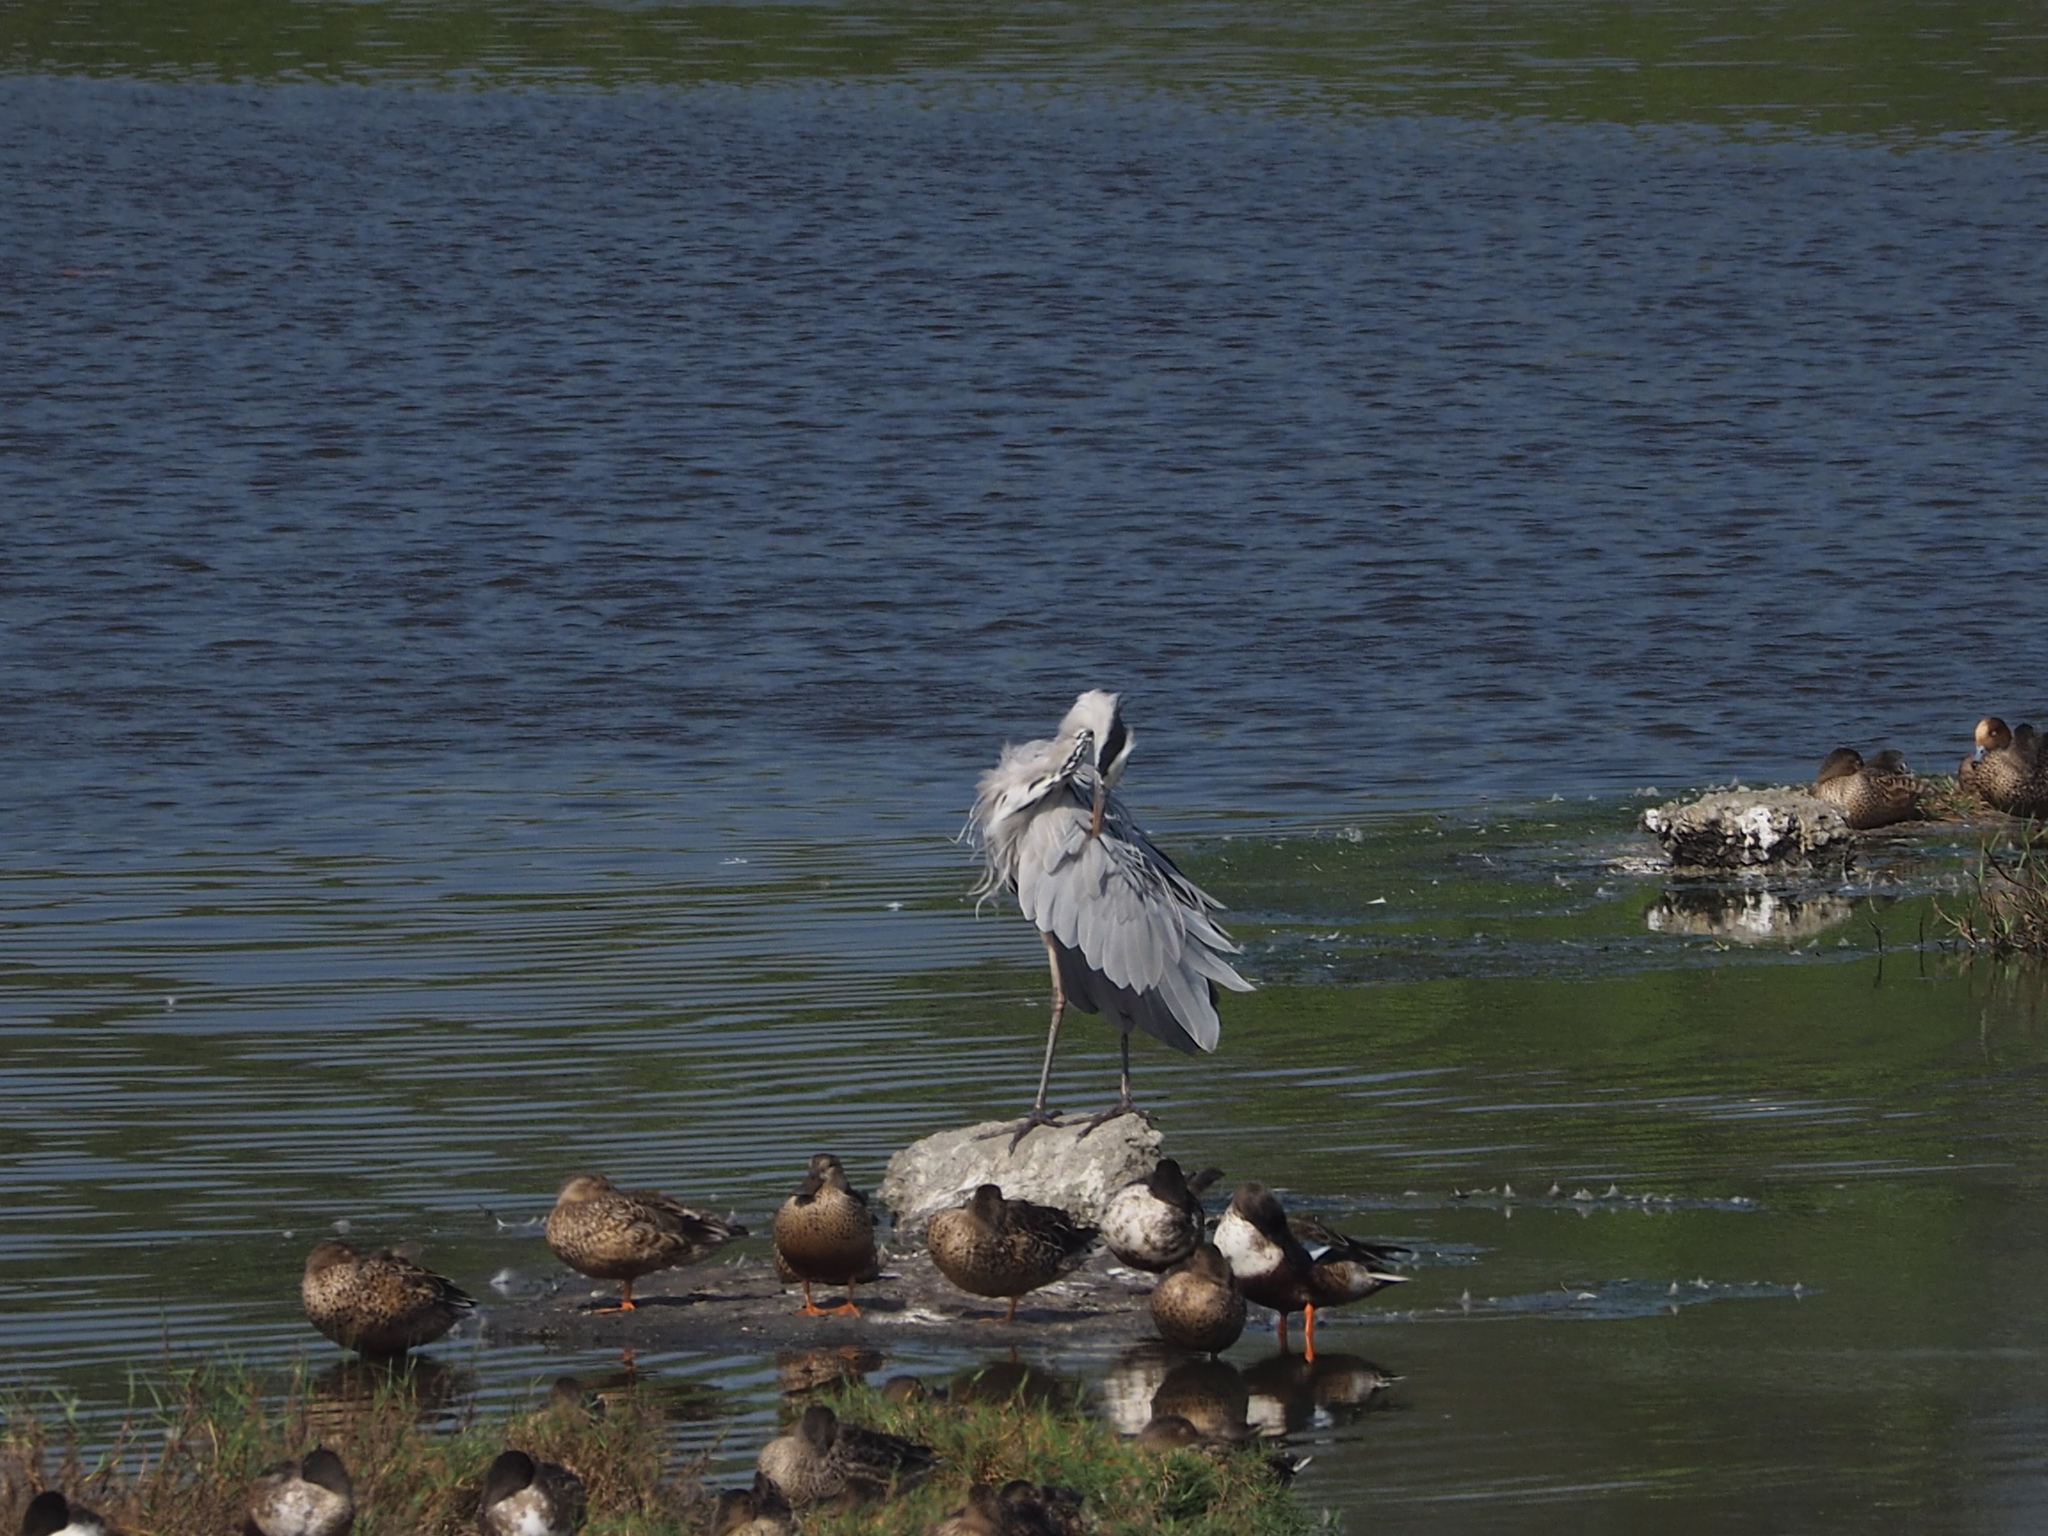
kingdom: Animalia
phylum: Chordata
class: Aves
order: Pelecaniformes
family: Ardeidae
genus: Ardea
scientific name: Ardea cinerea
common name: Grey heron
